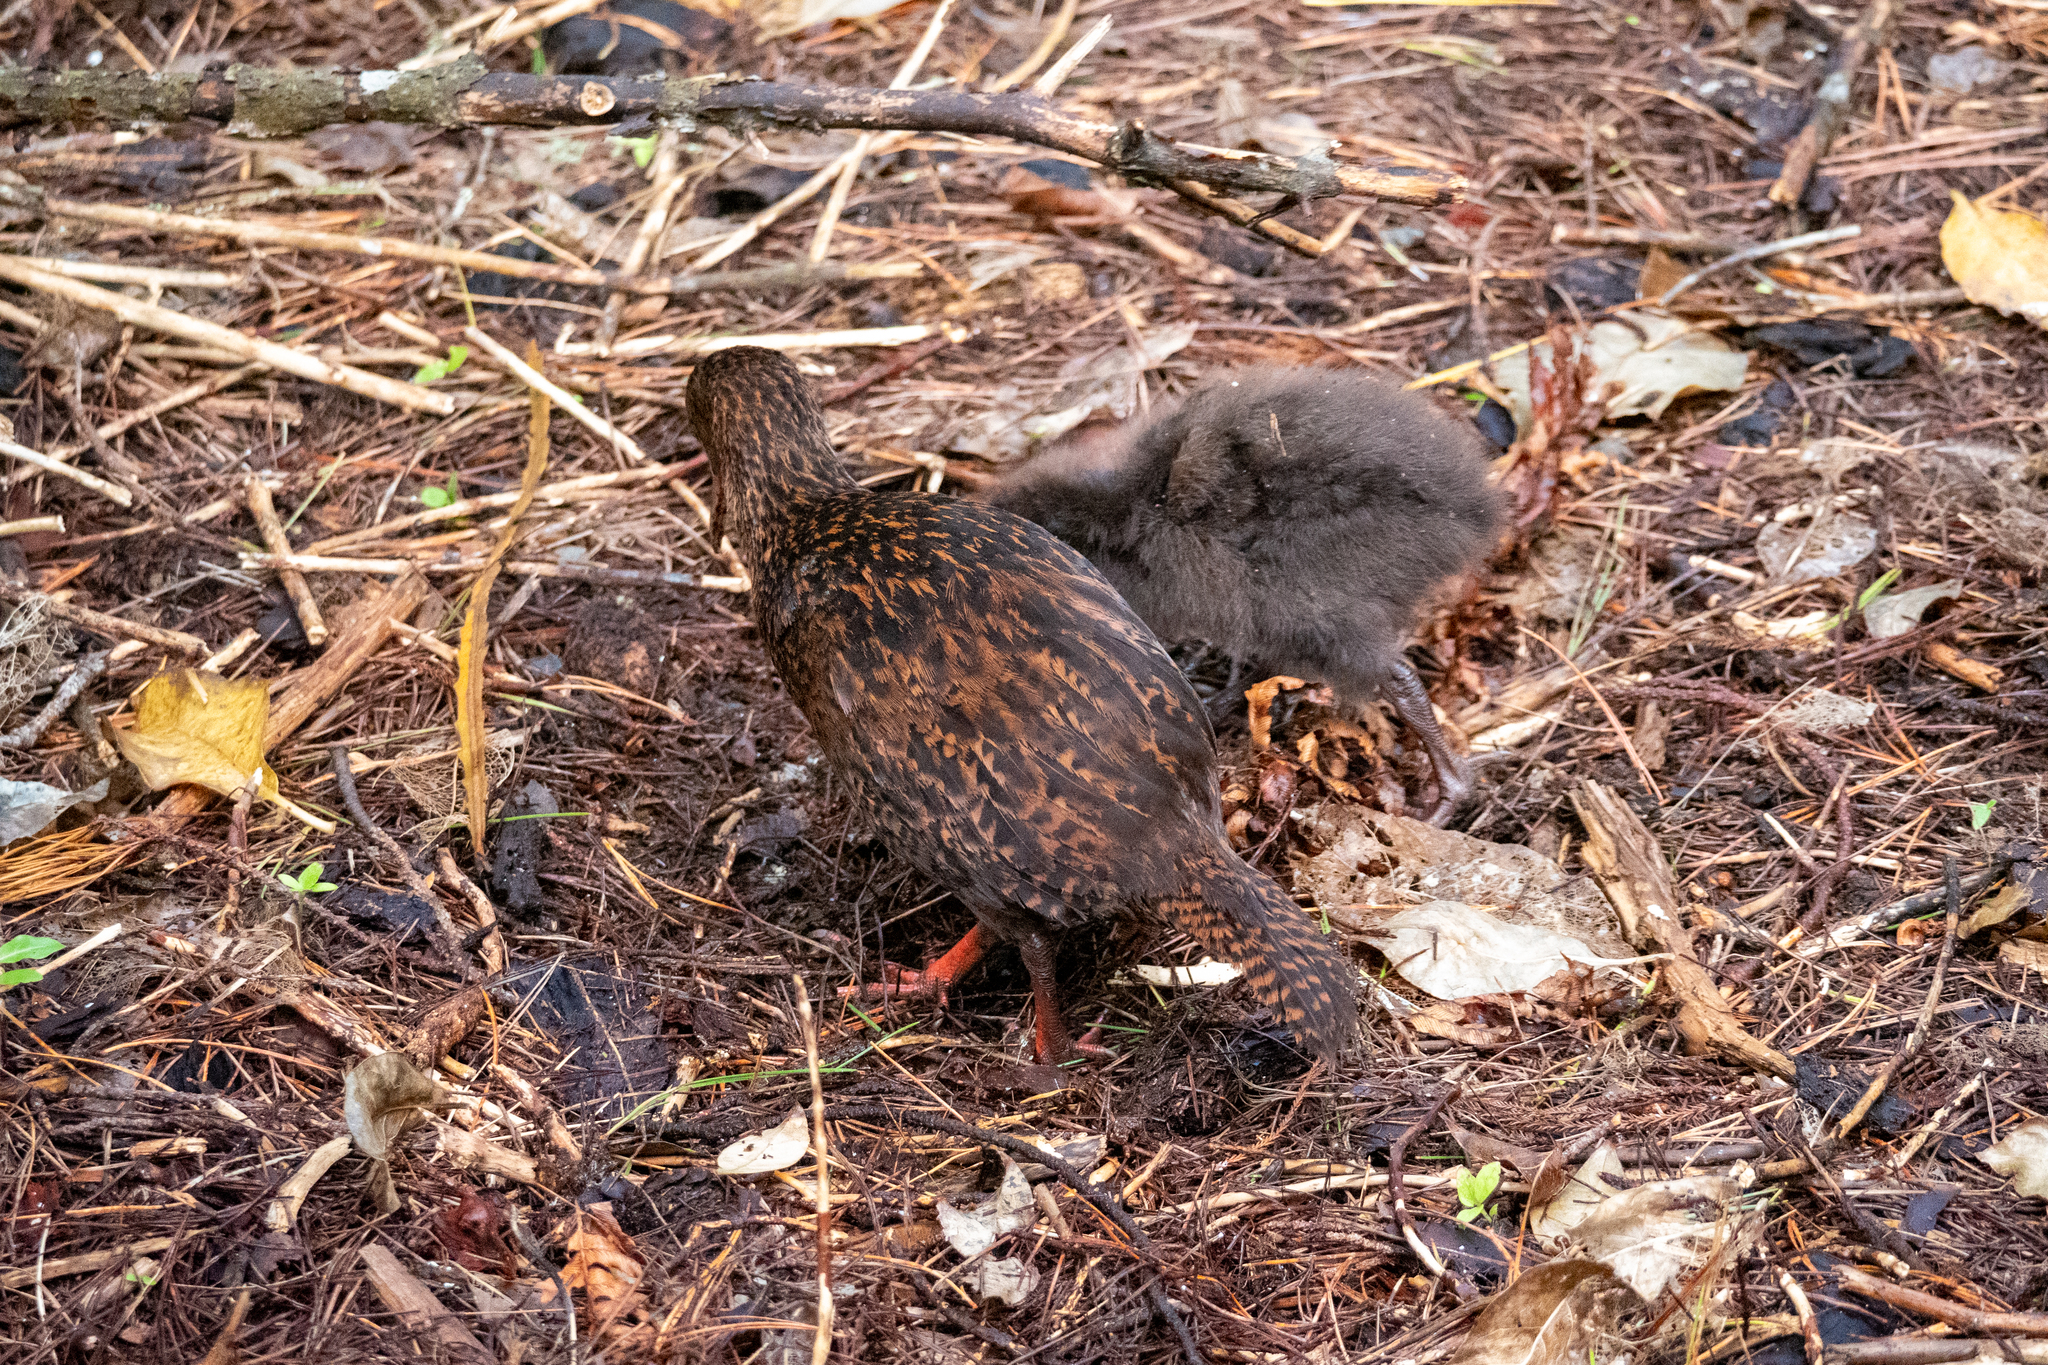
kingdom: Animalia
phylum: Chordata
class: Aves
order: Gruiformes
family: Rallidae
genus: Gallirallus
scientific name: Gallirallus australis
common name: Weka
